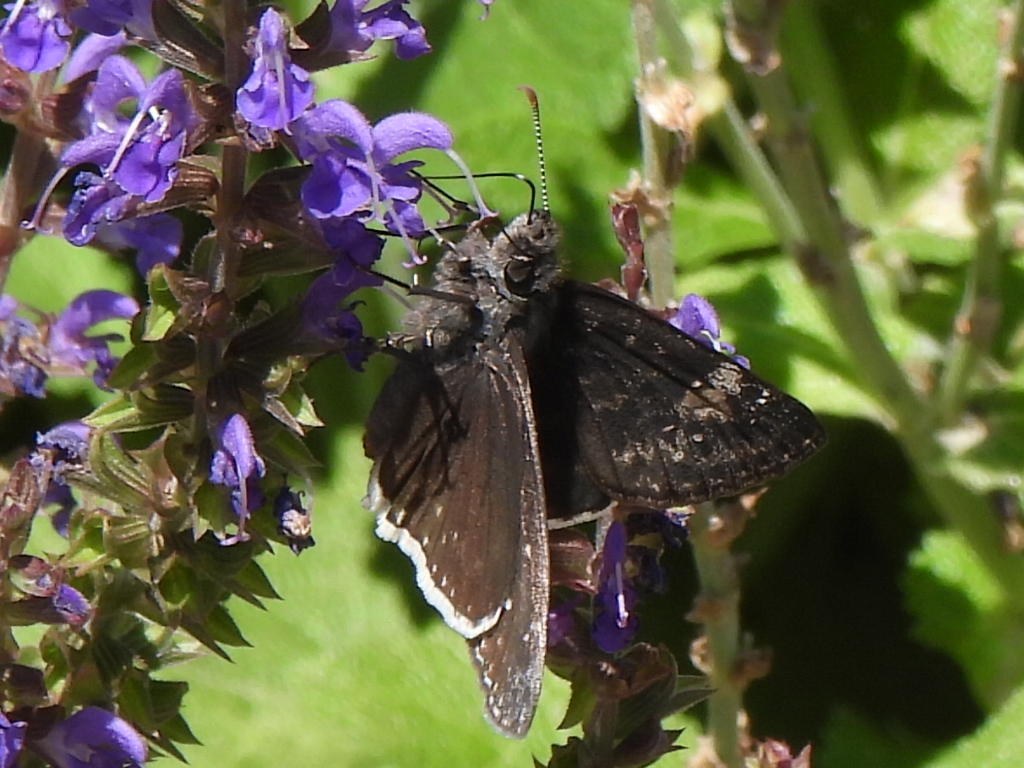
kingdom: Animalia
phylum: Arthropoda
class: Insecta
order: Lepidoptera
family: Hesperiidae
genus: Erynnis
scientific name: Erynnis funeralis
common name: Funereal duskywing
